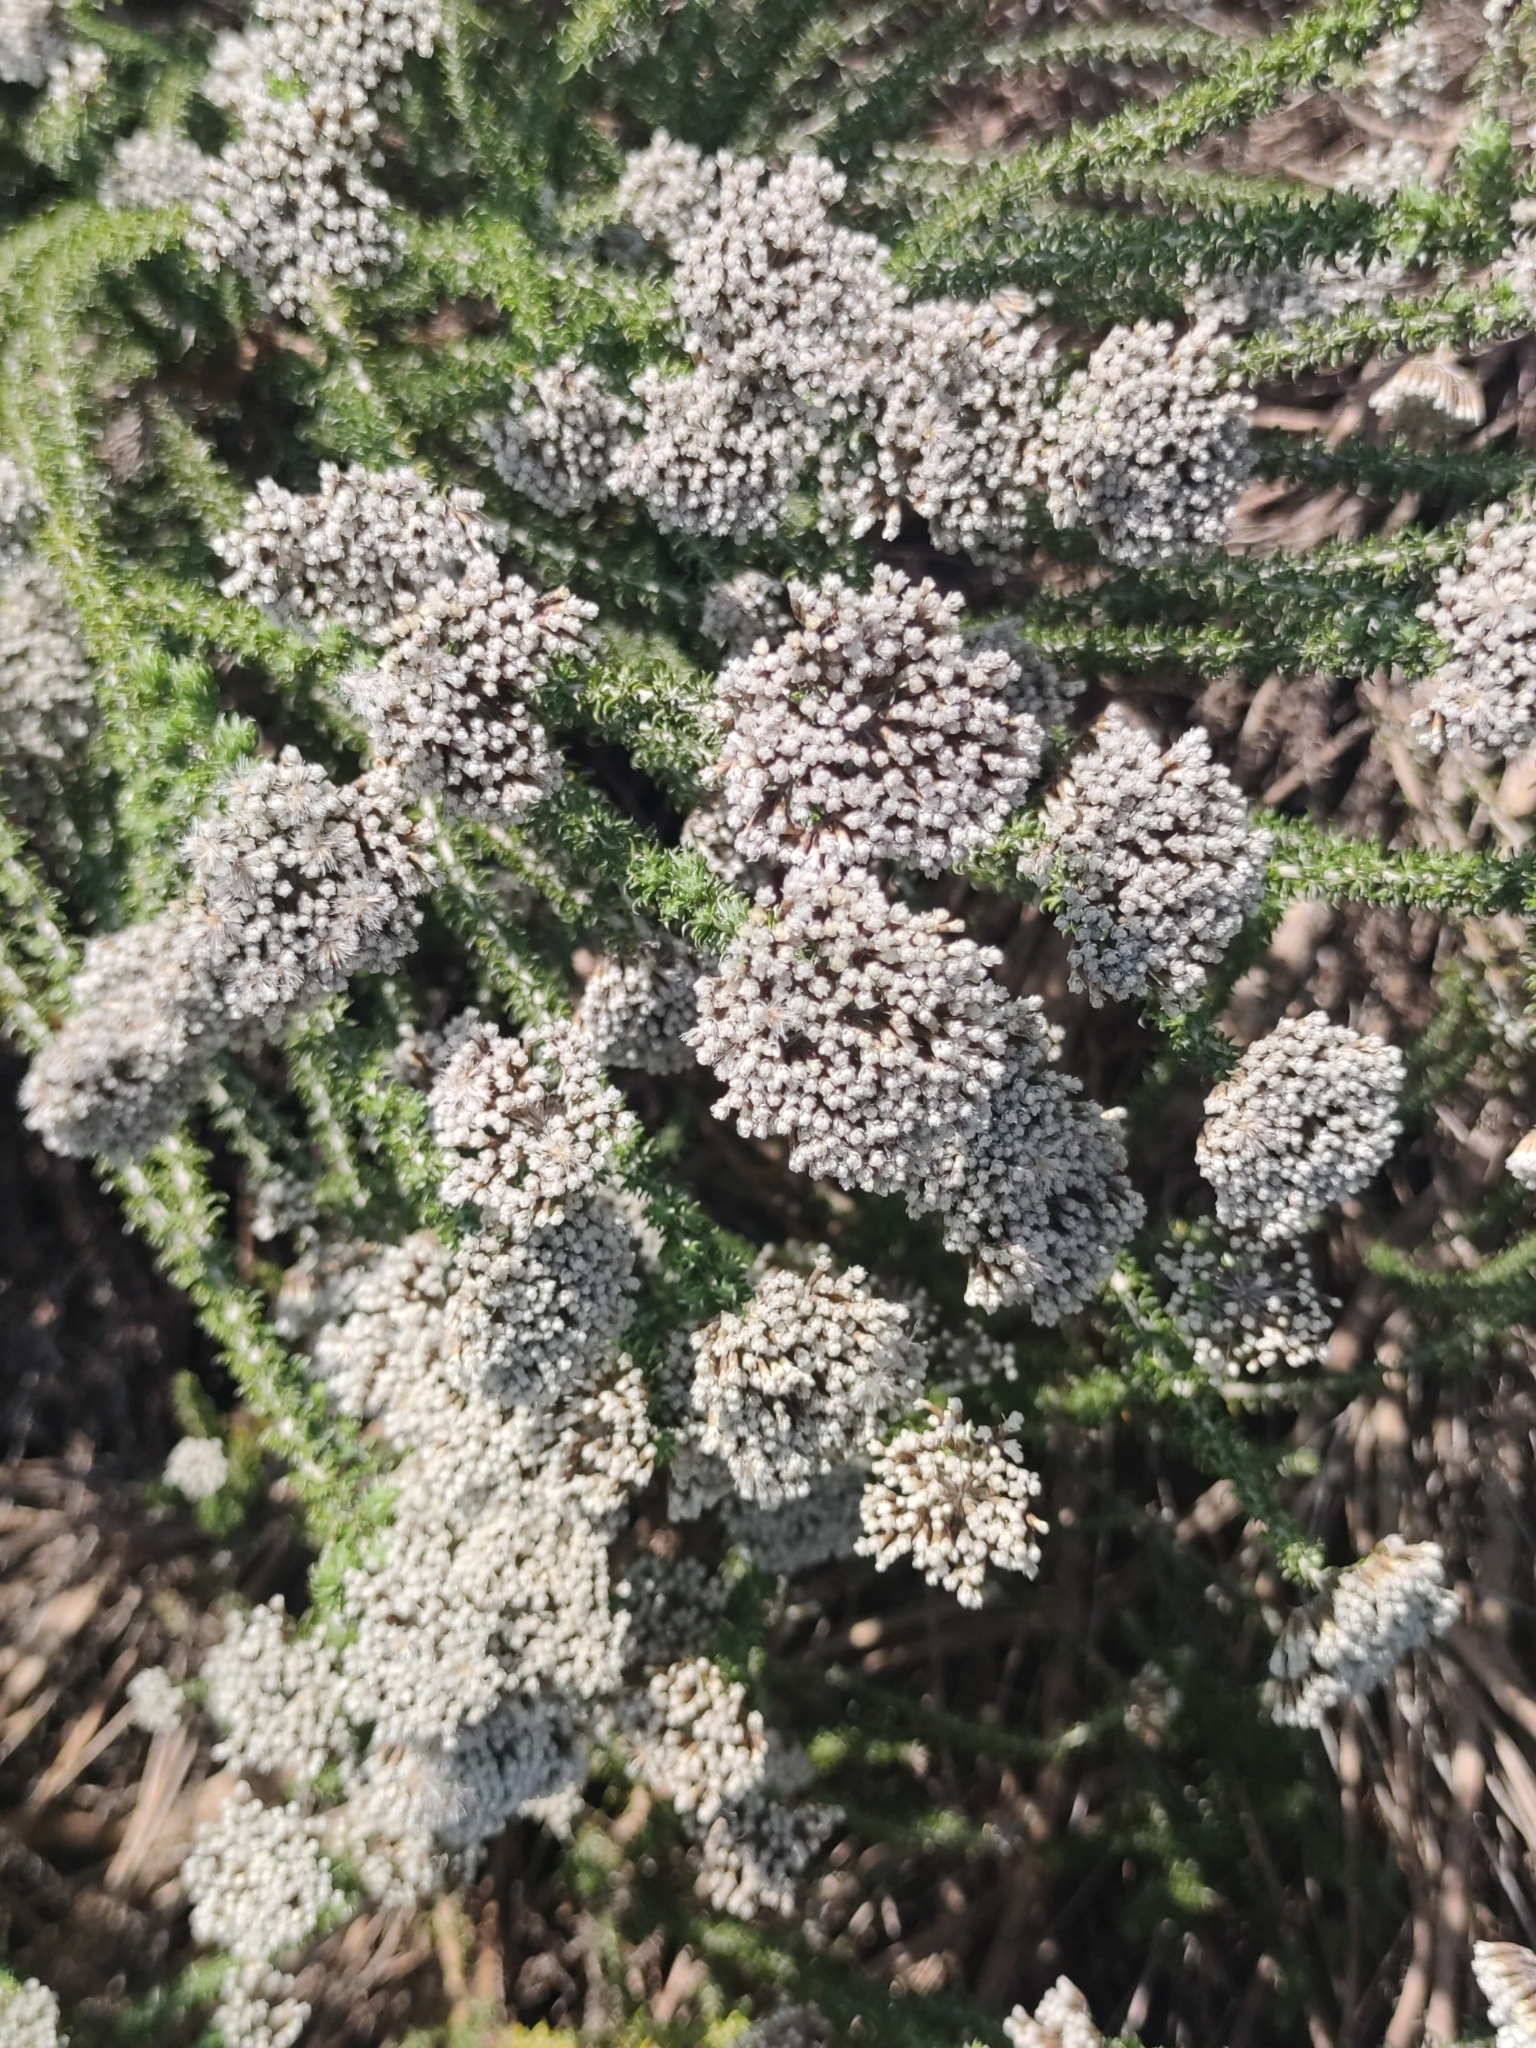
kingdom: Plantae
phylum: Tracheophyta
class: Magnoliopsida
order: Asterales
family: Asteraceae
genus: Metalasia
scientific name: Metalasia muricata
